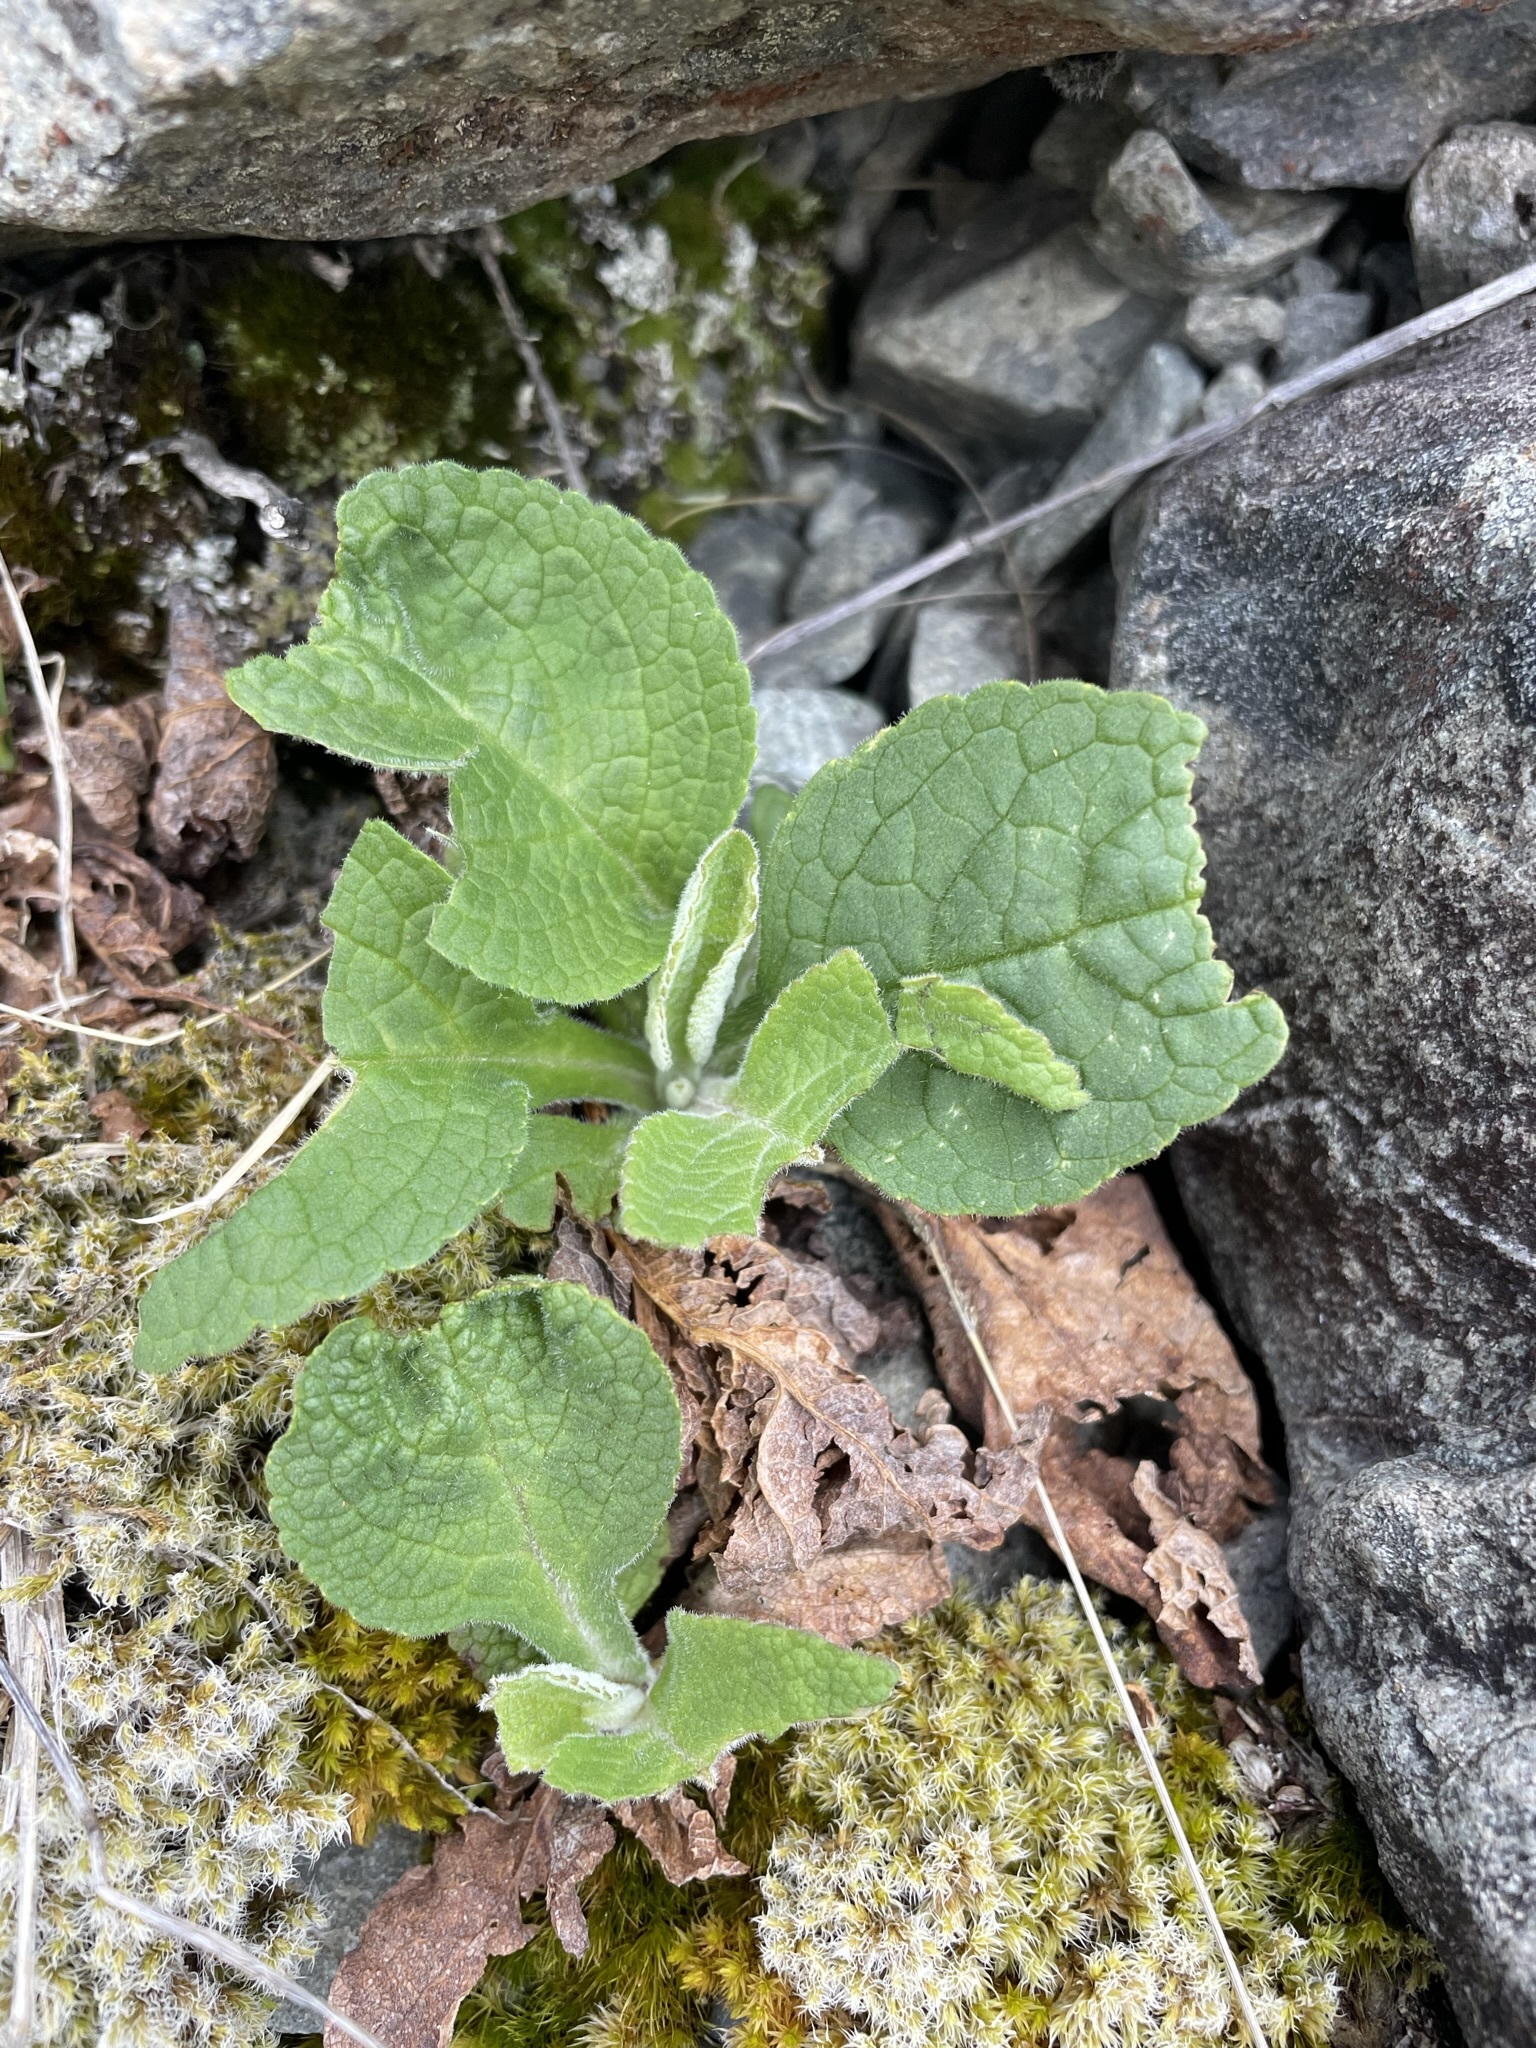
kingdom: Plantae
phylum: Tracheophyta
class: Magnoliopsida
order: Lamiales
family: Plantaginaceae
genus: Digitalis
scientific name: Digitalis purpurea
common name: Foxglove
